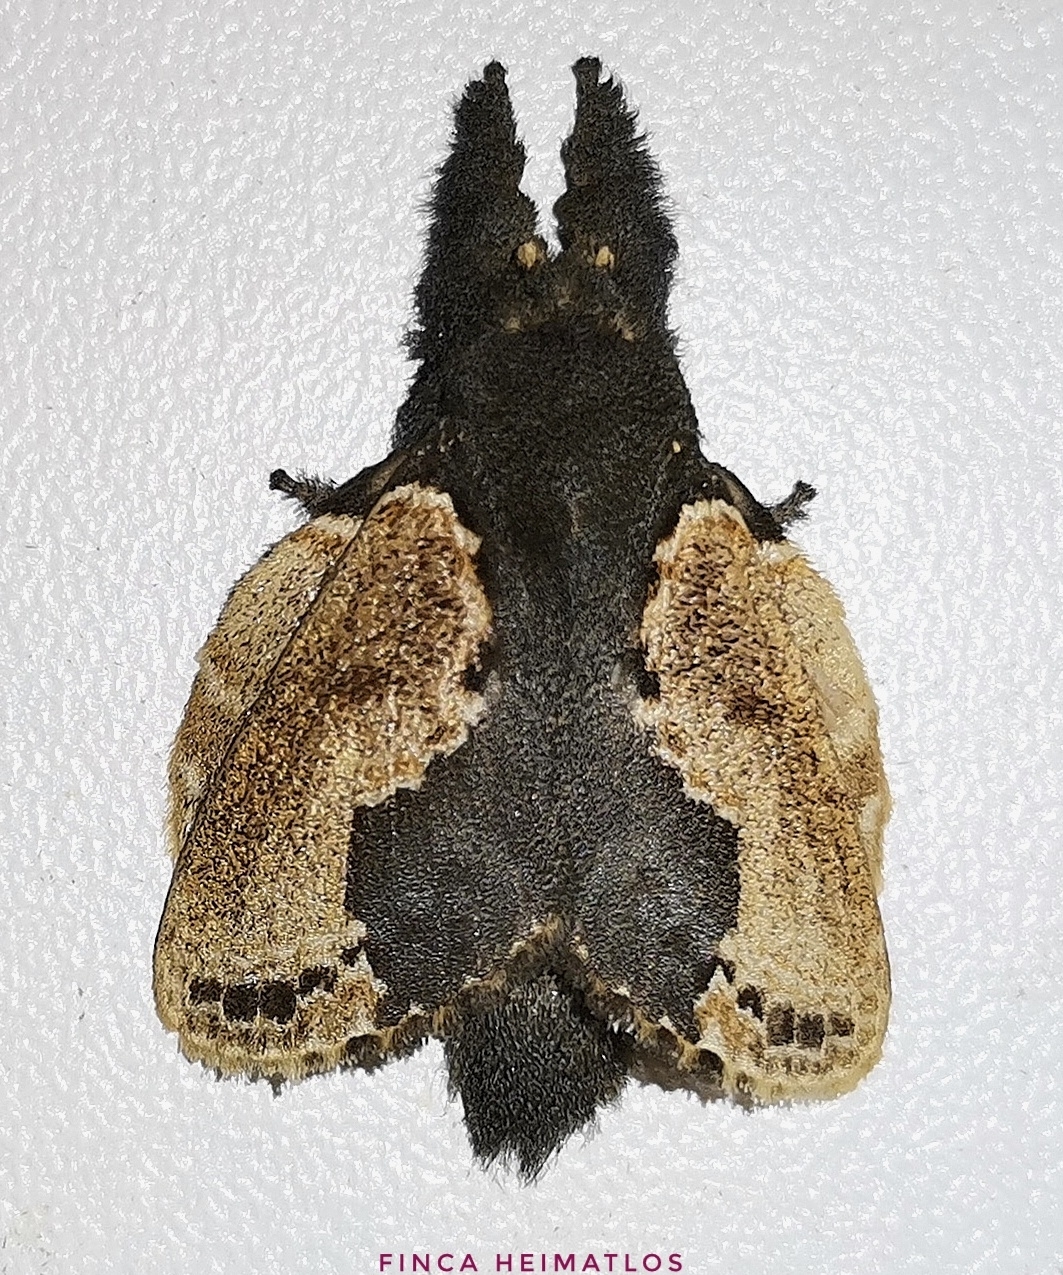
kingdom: Animalia
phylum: Arthropoda
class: Insecta
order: Lepidoptera
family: Lasiocampidae
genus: Euglyphis
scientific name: Euglyphis marna
